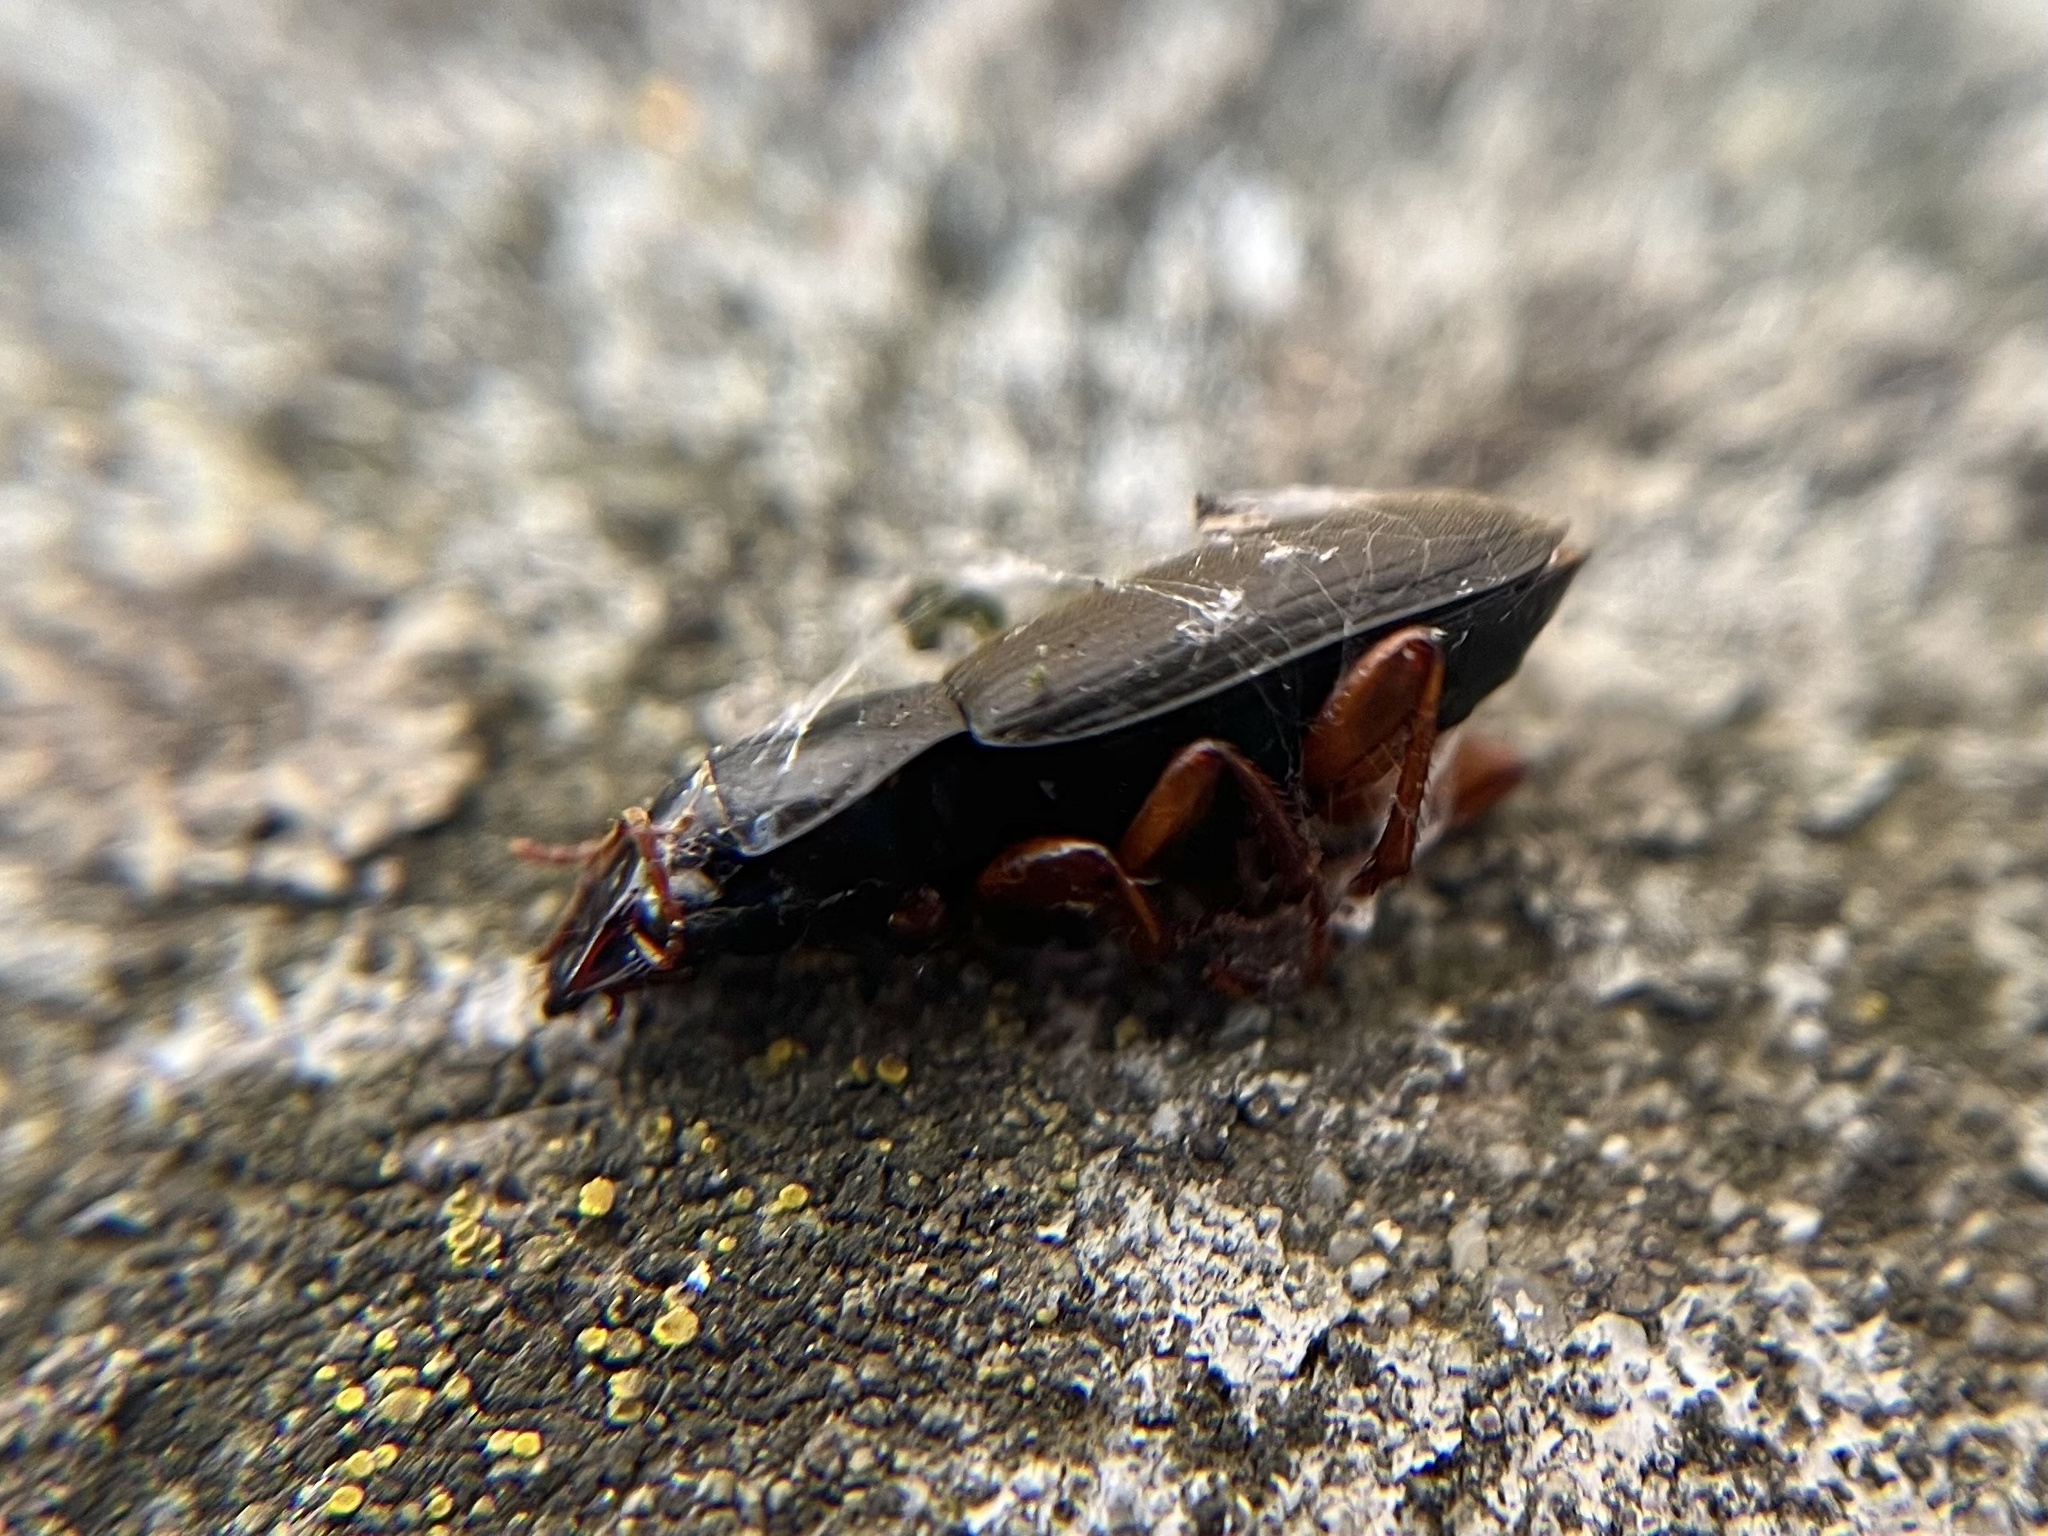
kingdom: Animalia
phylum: Arthropoda
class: Insecta
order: Coleoptera
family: Carabidae
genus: Harpalus
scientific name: Harpalus rufipes
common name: Strawberry harp ground beetle
